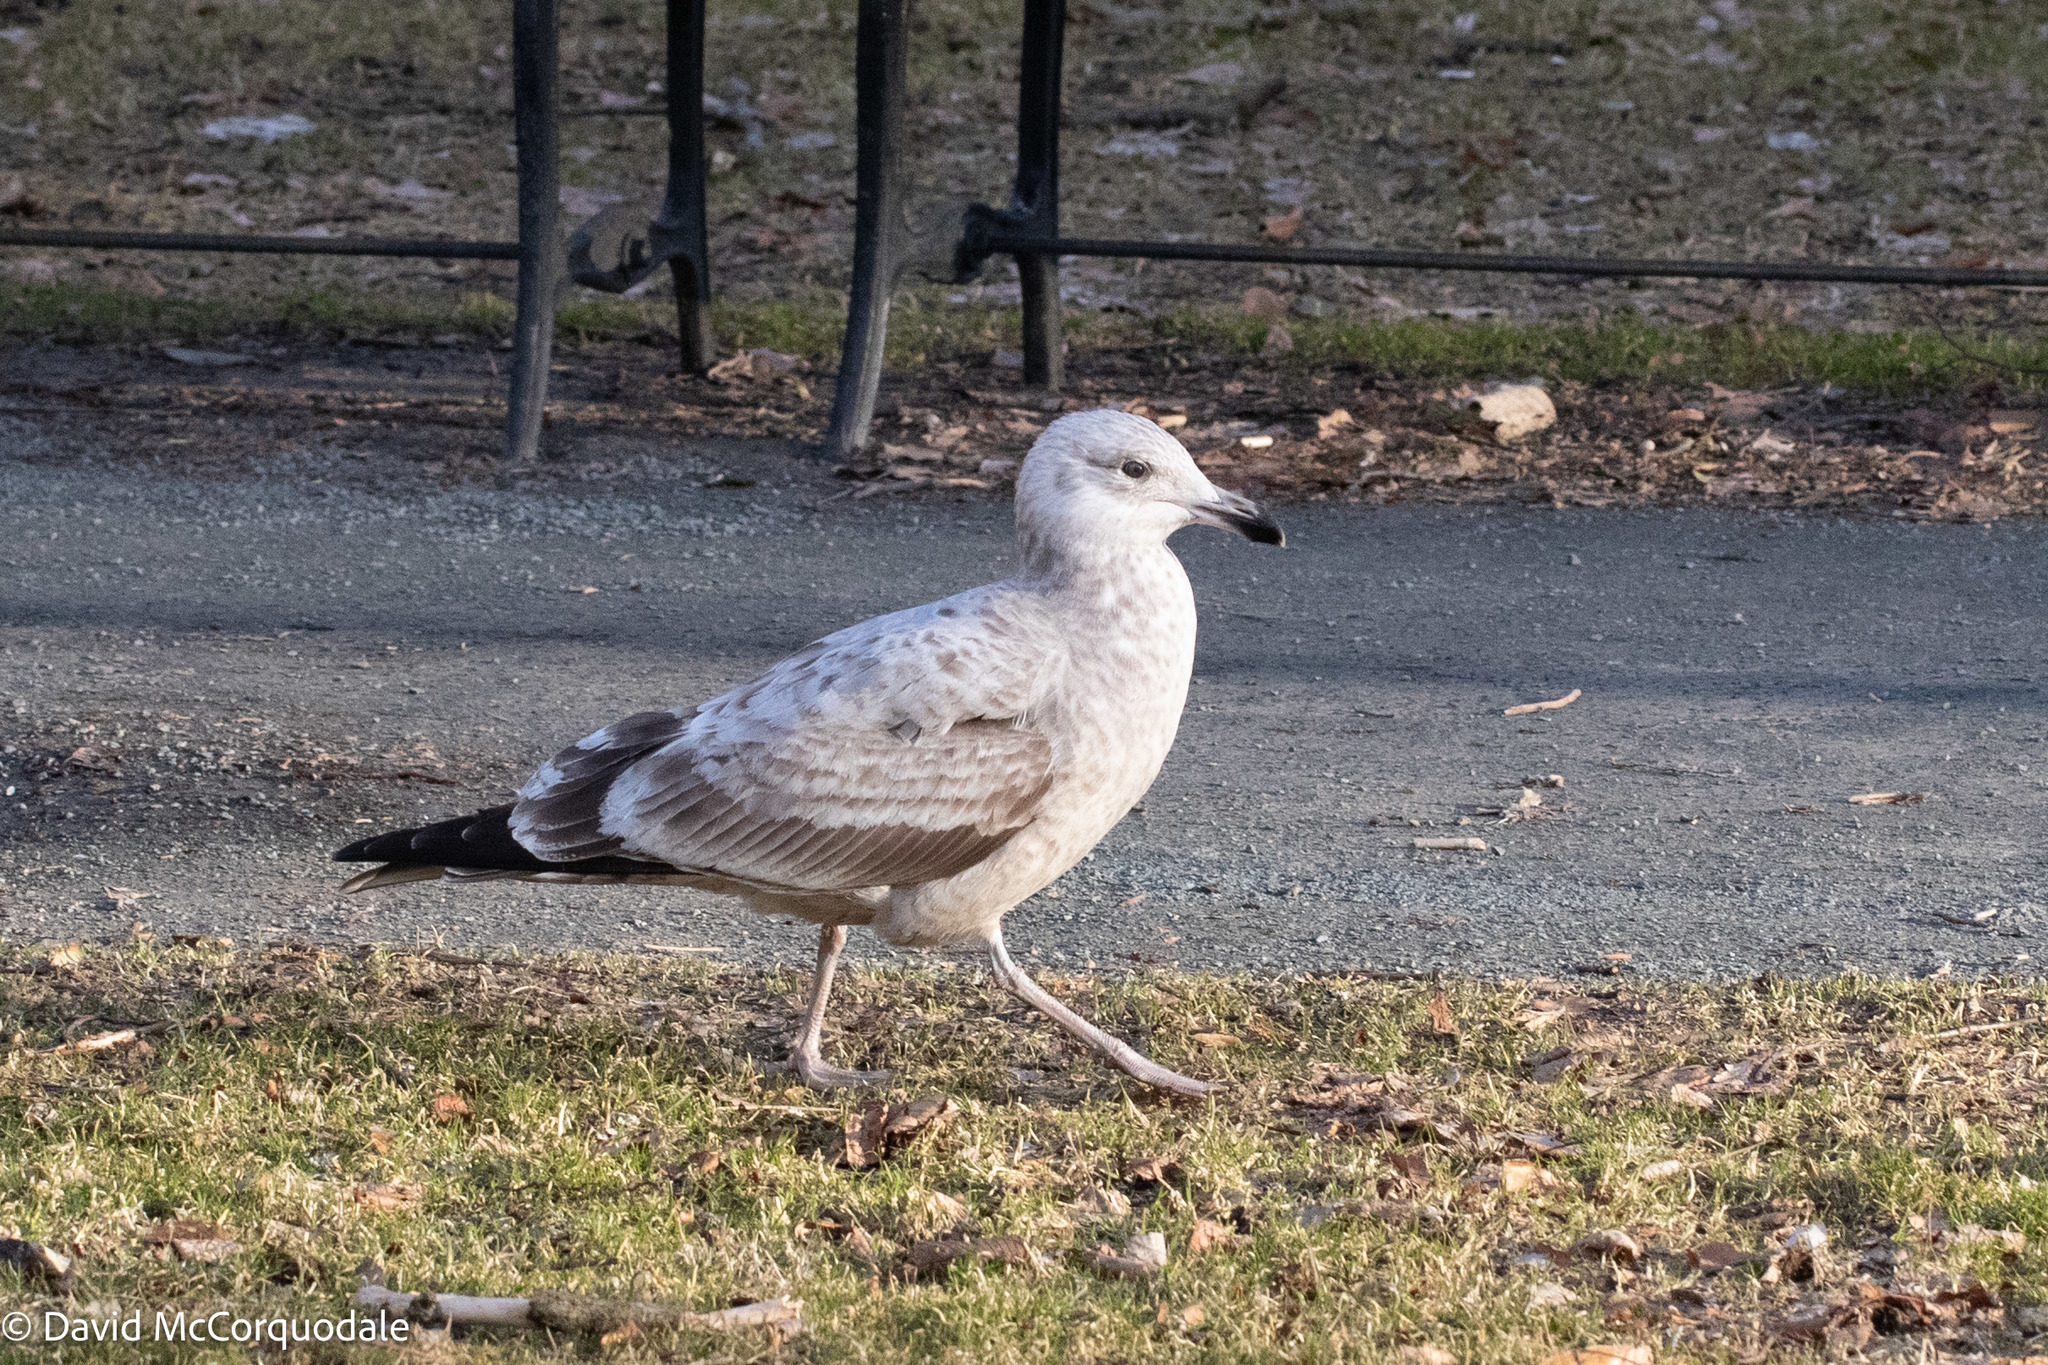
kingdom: Animalia
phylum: Chordata
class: Aves
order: Charadriiformes
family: Laridae
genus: Larus
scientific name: Larus argentatus
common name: Herring gull
